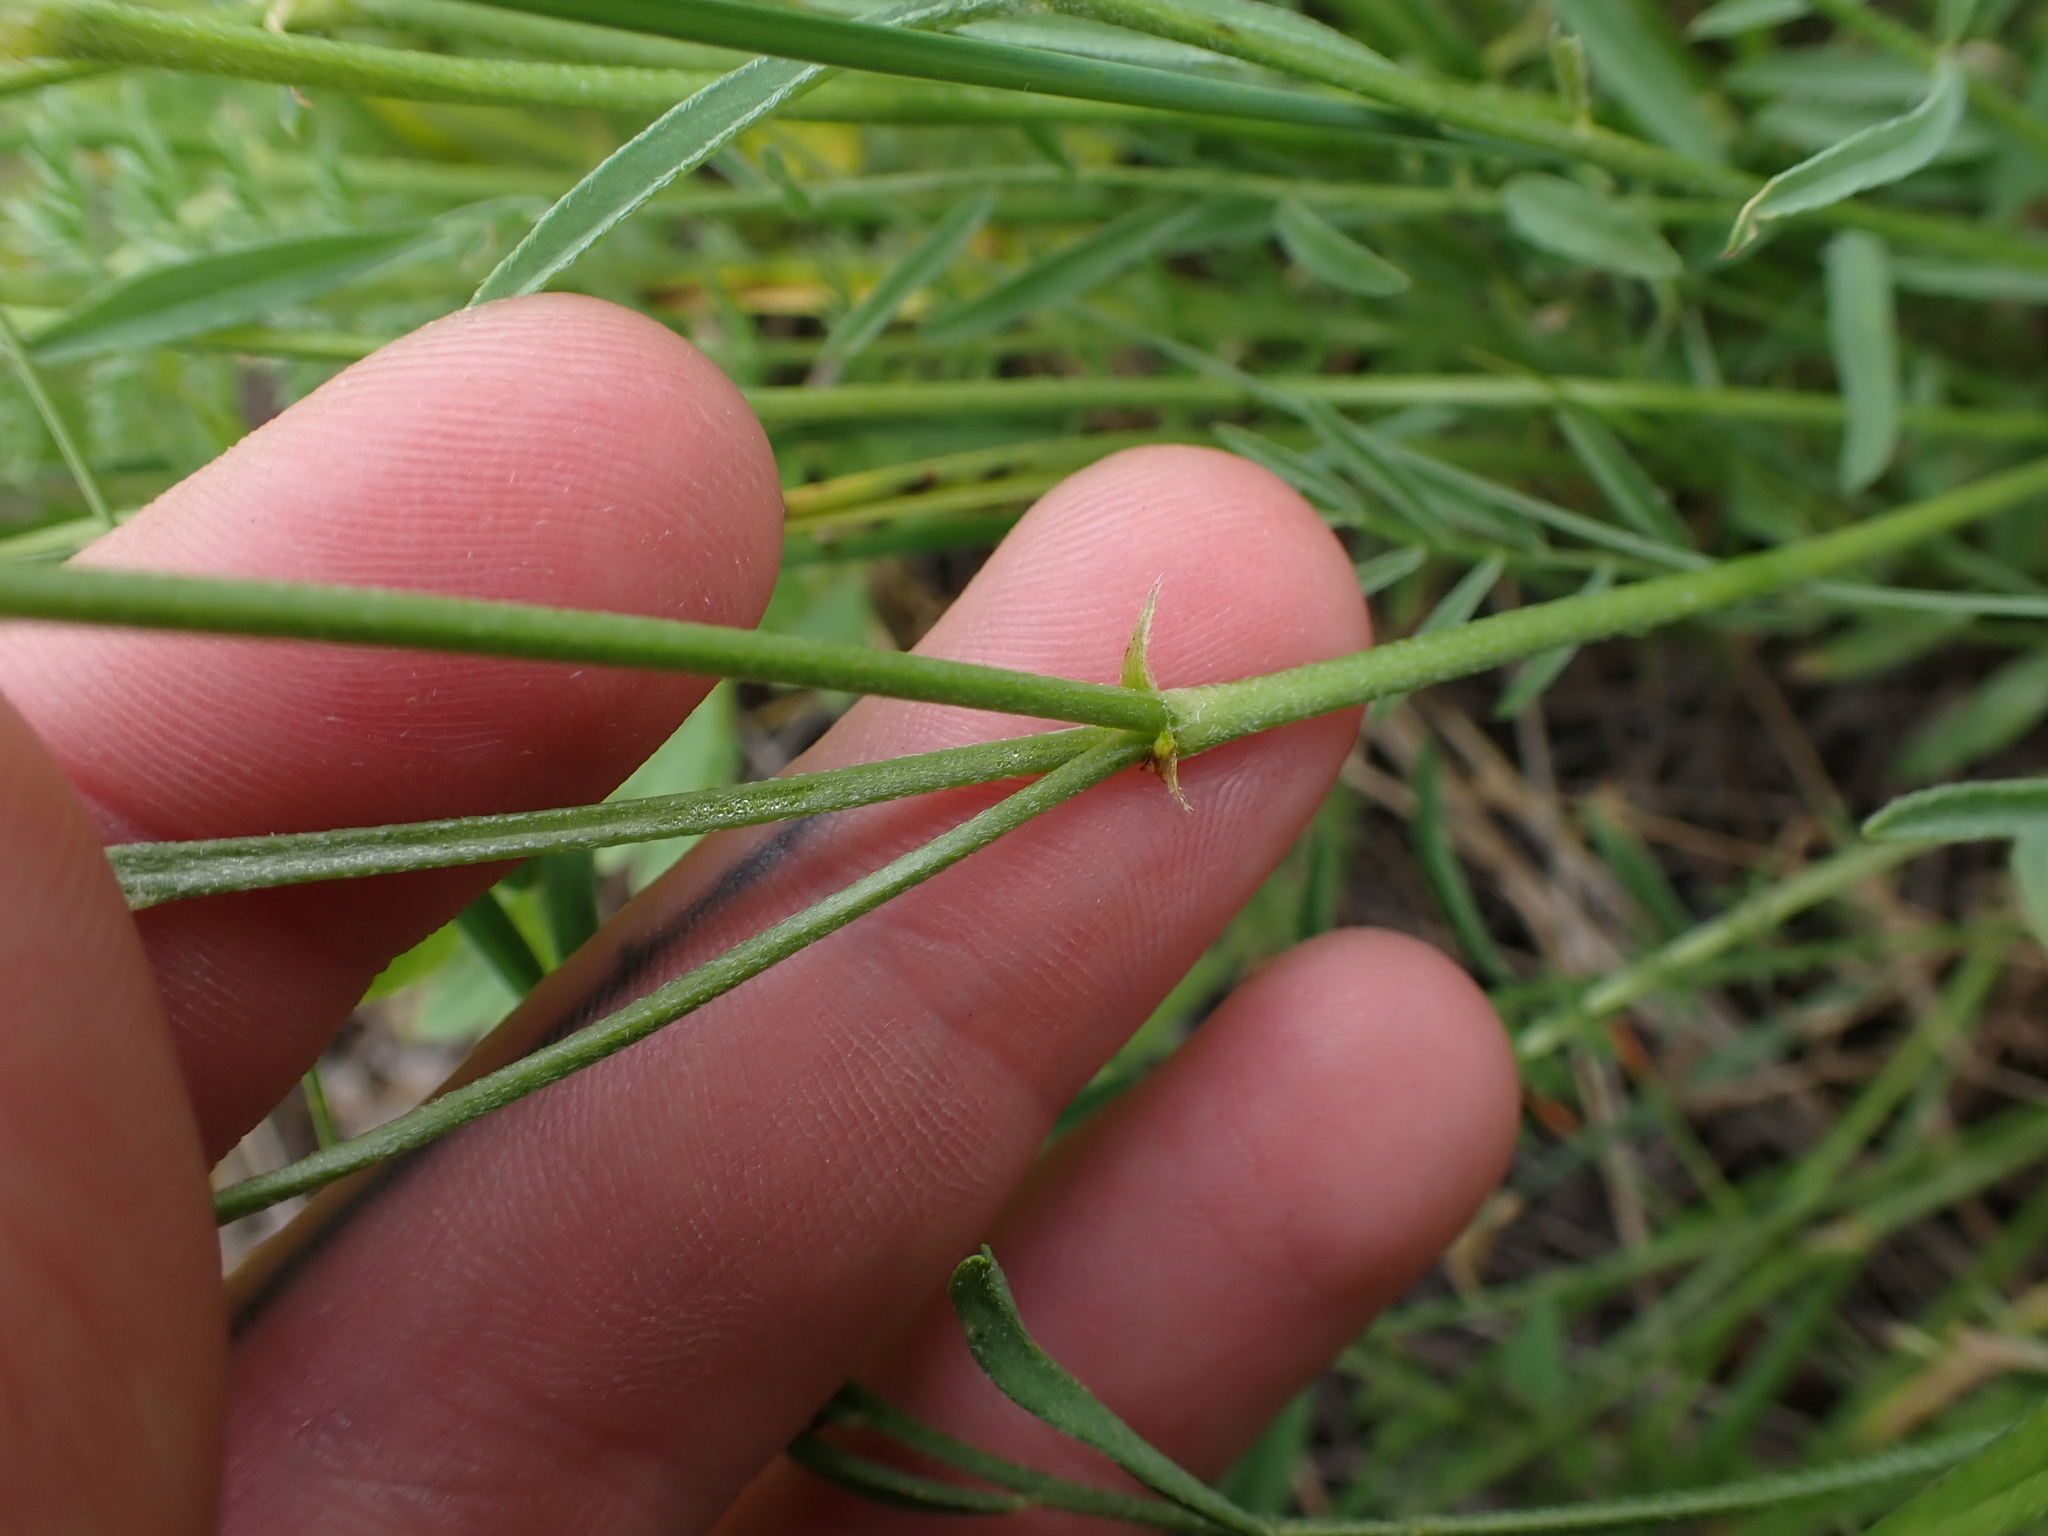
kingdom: Plantae
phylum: Tracheophyta
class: Magnoliopsida
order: Fabales
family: Fabaceae
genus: Astragalus
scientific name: Astragalus miser
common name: Timber milkvetch
